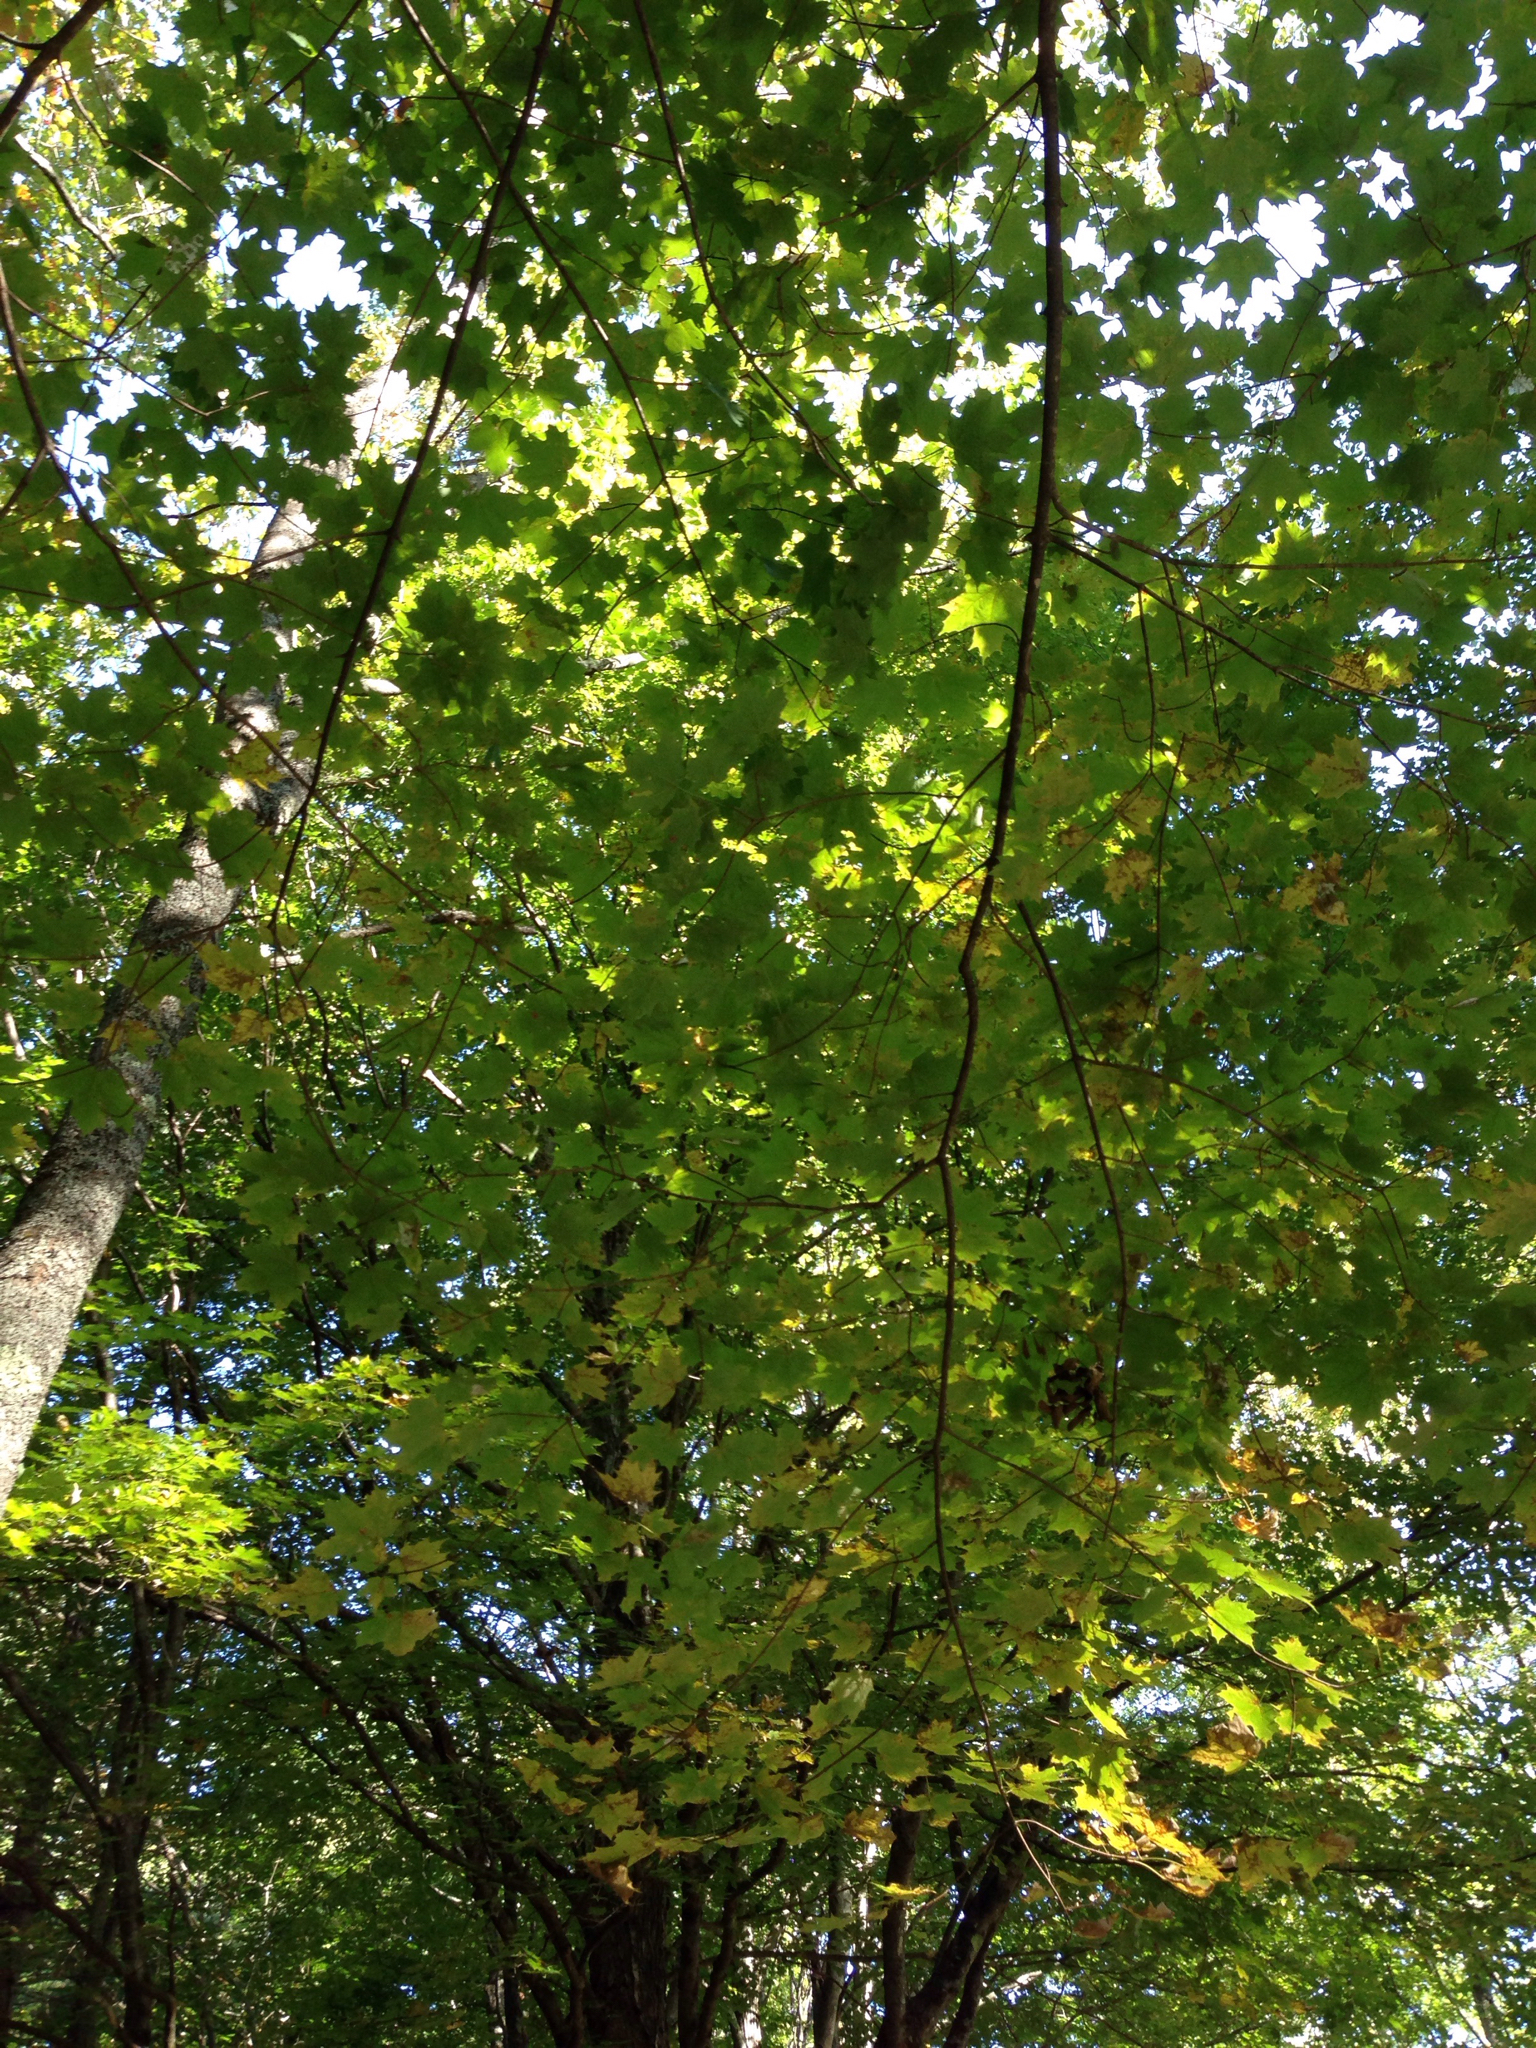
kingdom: Plantae
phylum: Tracheophyta
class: Magnoliopsida
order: Sapindales
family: Sapindaceae
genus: Acer
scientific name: Acer saccharum
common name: Sugar maple
